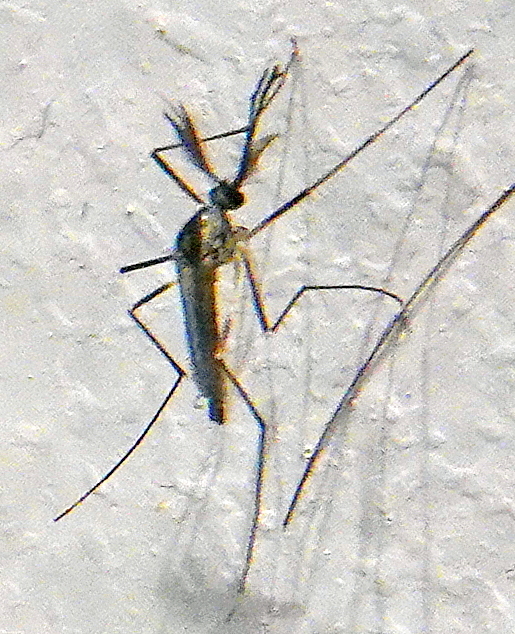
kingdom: Animalia
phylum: Arthropoda
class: Insecta
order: Diptera
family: Culicidae
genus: Aedes
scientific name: Aedes triseriatus
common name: Eastern treehole mosquito
